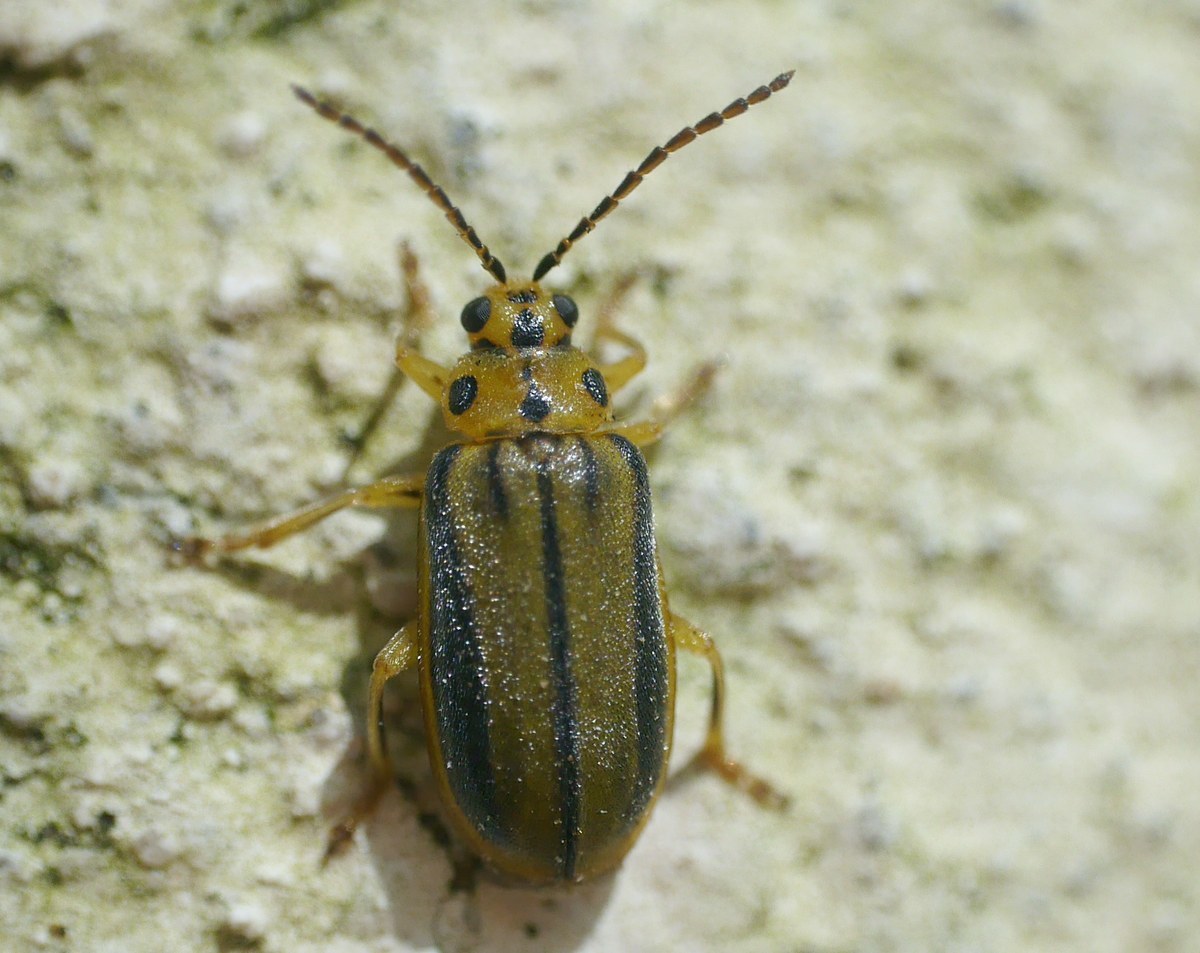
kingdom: Animalia
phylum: Arthropoda
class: Insecta
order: Coleoptera
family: Chrysomelidae
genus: Xanthogaleruca
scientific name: Xanthogaleruca luteola
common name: Elm leaf beetle
